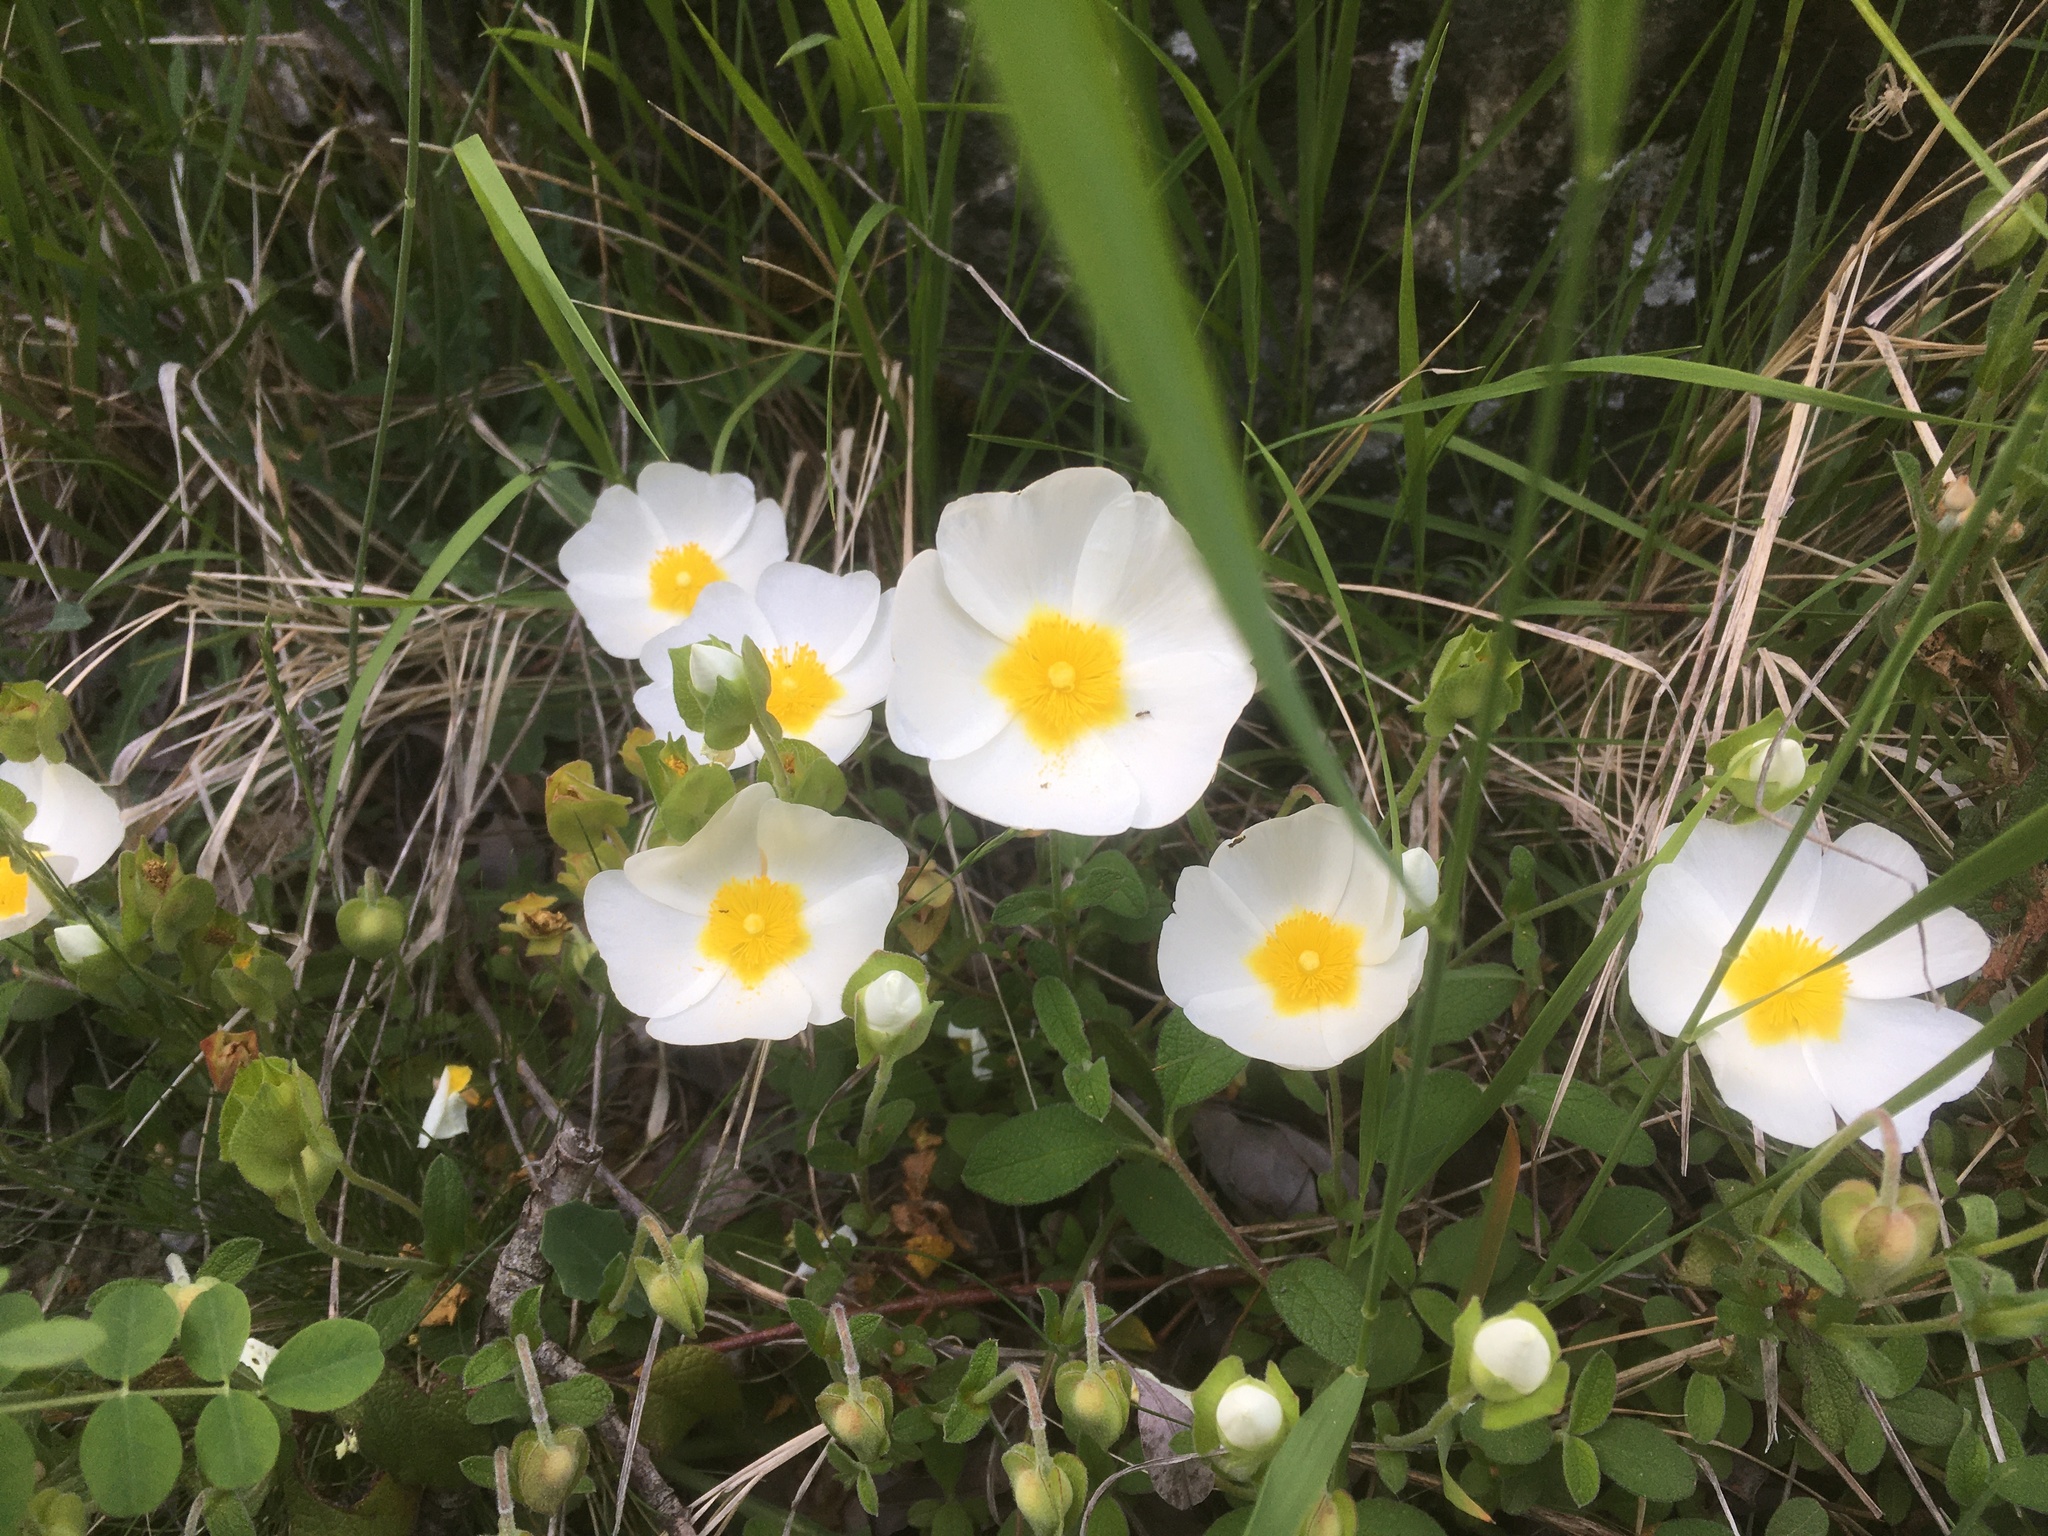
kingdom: Plantae
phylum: Tracheophyta
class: Magnoliopsida
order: Malvales
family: Cistaceae
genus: Cistus
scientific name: Cistus salviifolius
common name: Salvia cistus
